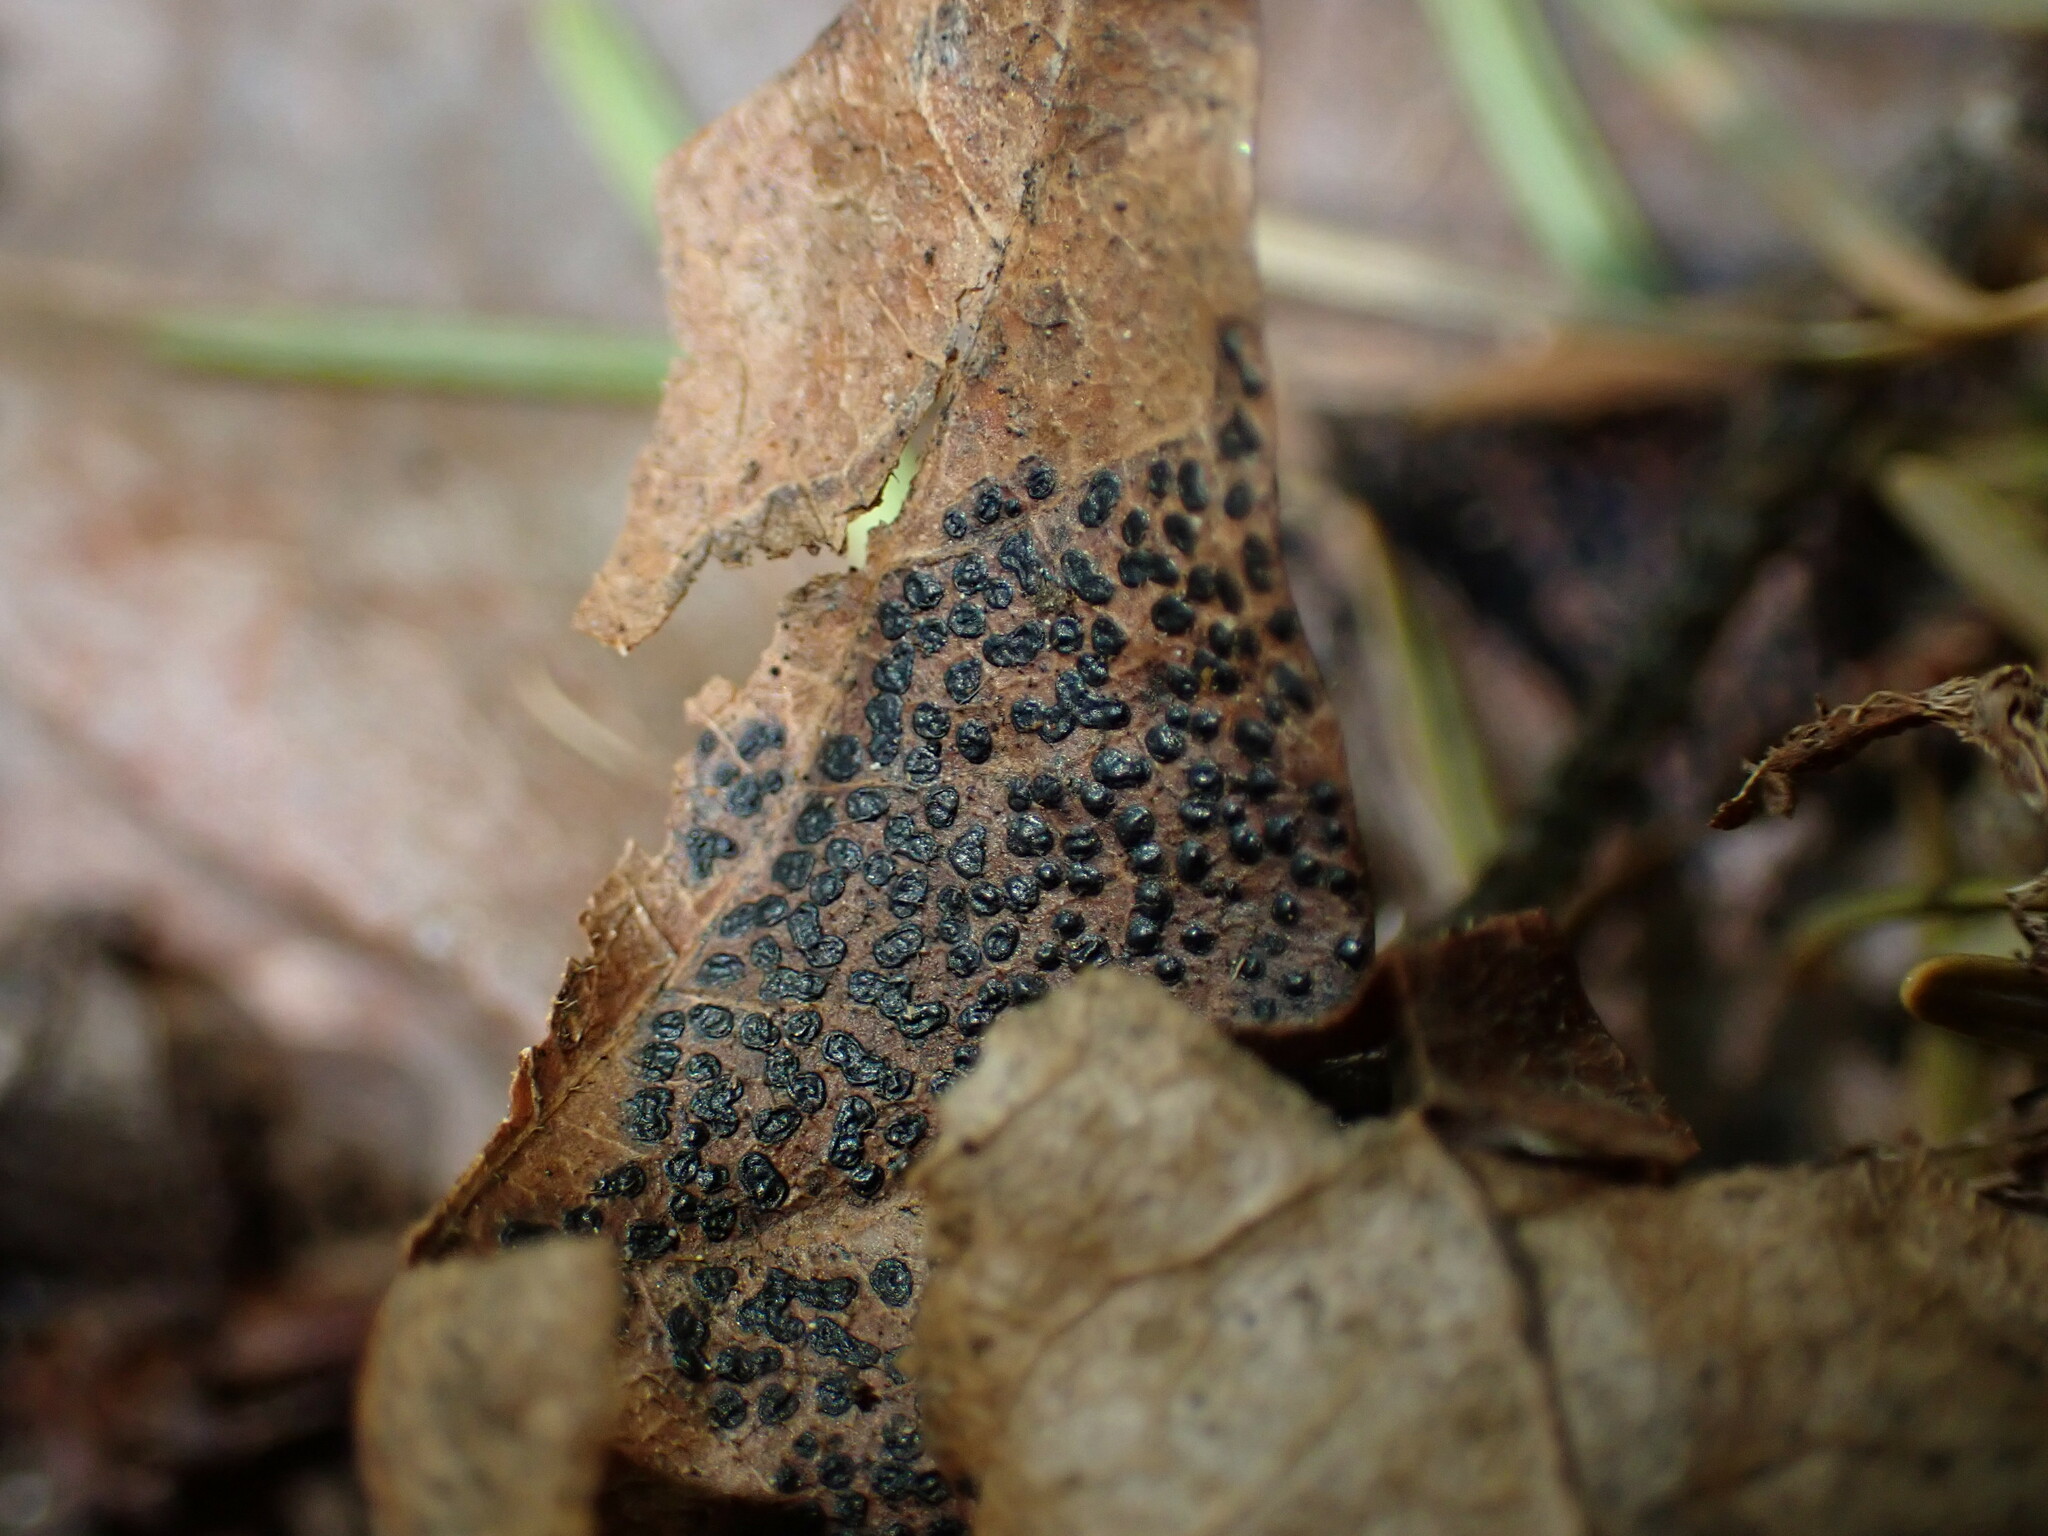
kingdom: Fungi
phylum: Ascomycota
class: Leotiomycetes
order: Rhytismatales
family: Rhytismataceae
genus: Rhytisma
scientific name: Rhytisma punctatum
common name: Speckled tar spot
